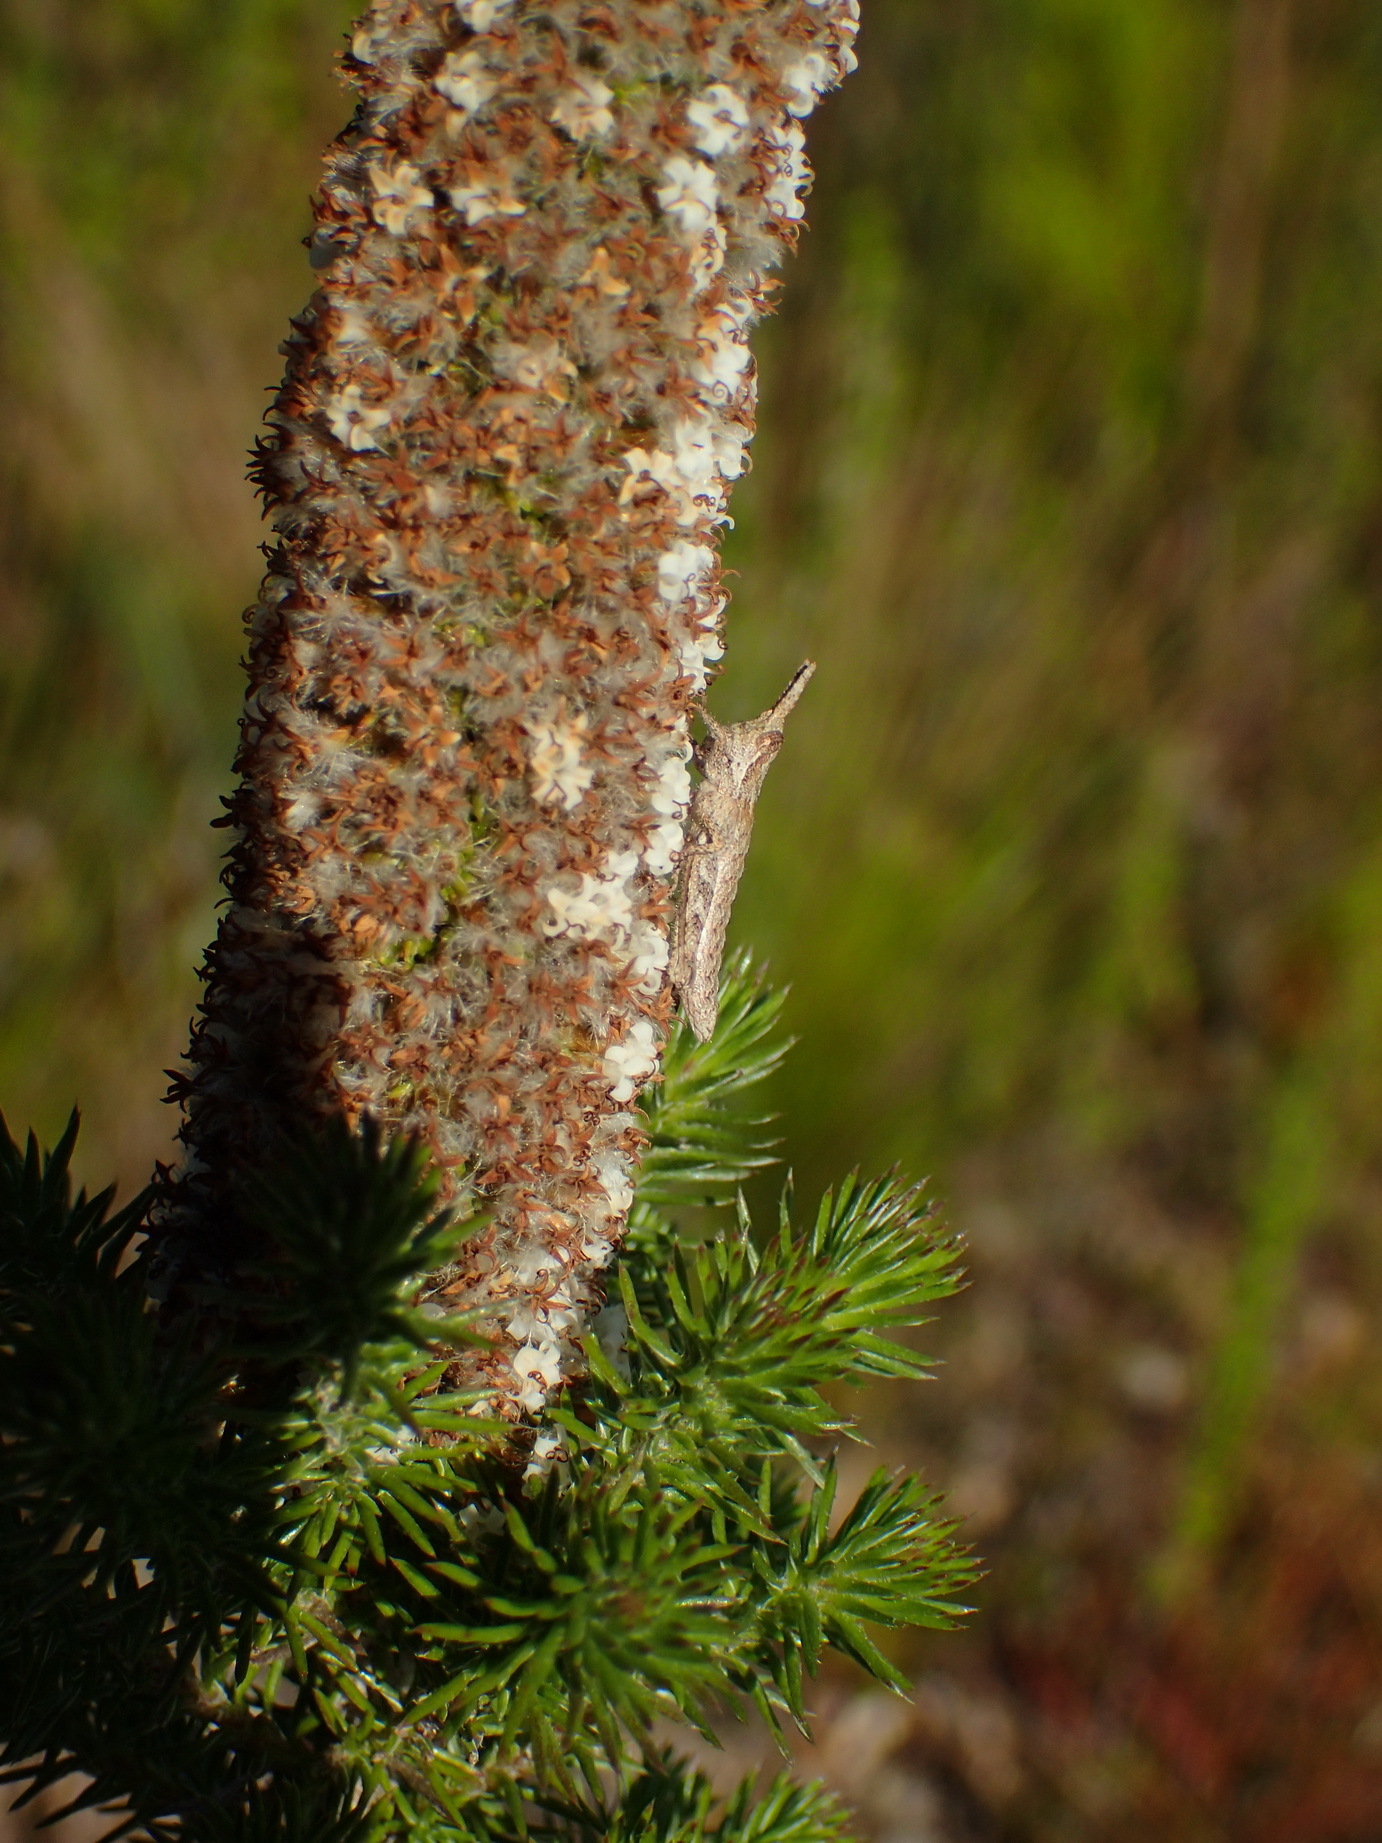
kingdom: Plantae
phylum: Tracheophyta
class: Magnoliopsida
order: Asterales
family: Asteraceae
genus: Stoebe
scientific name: Stoebe alopecuroides
